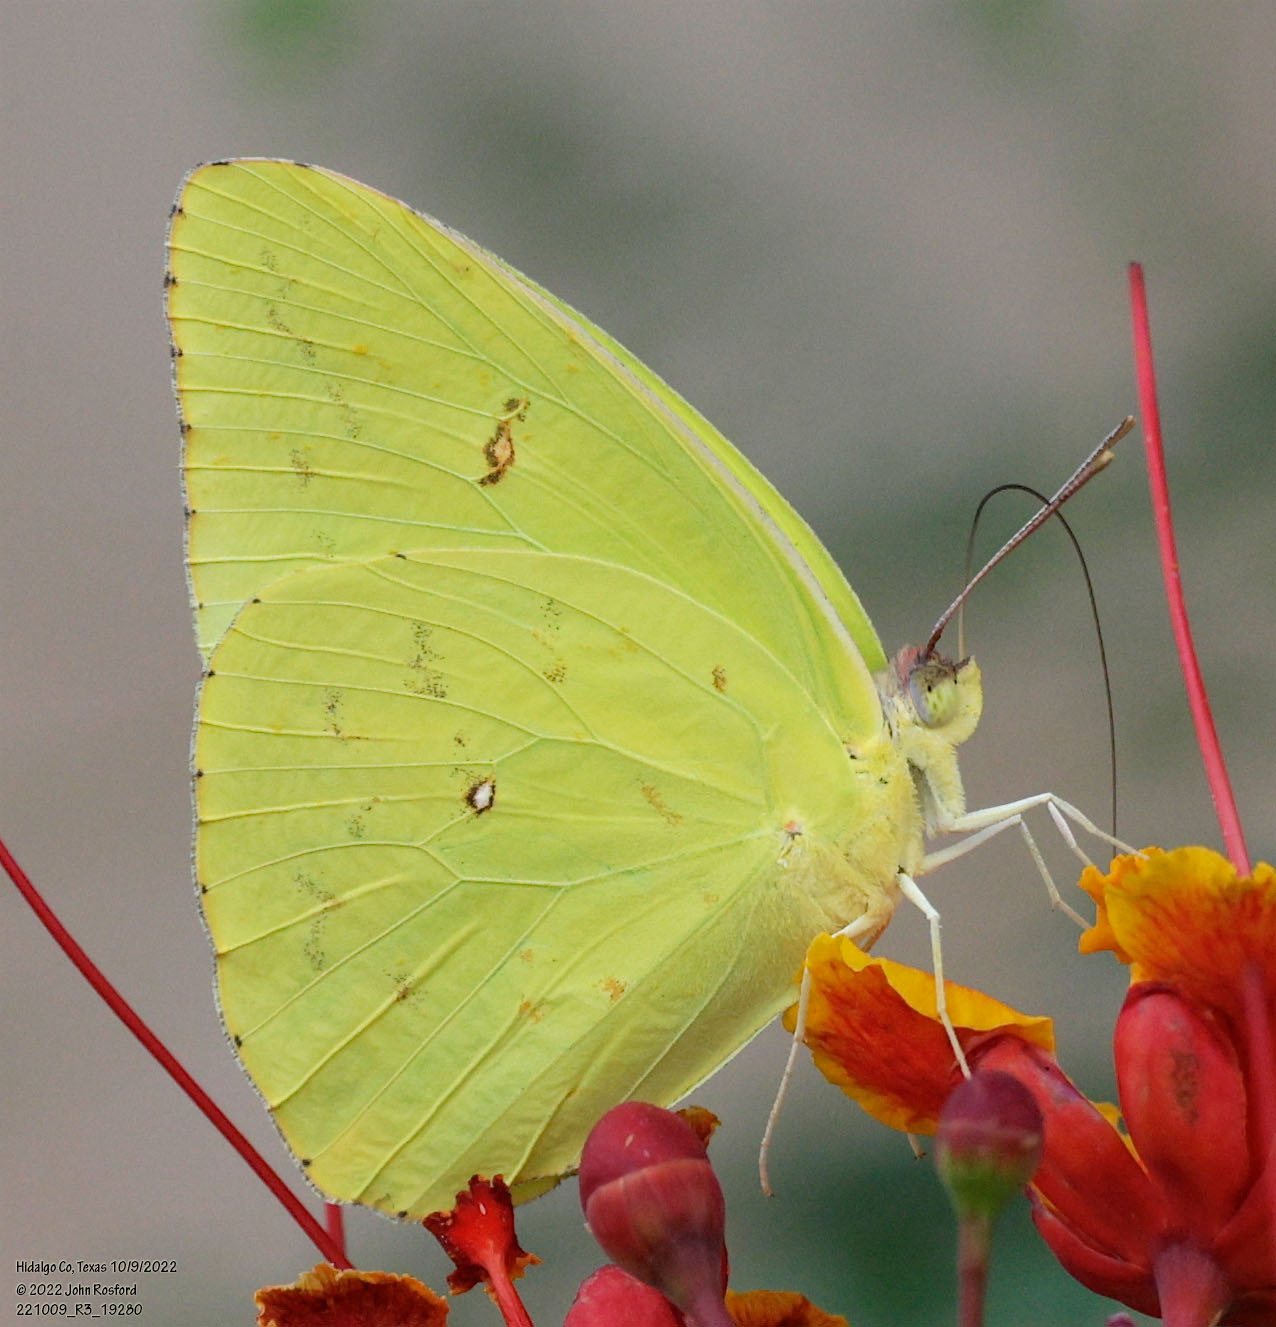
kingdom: Animalia
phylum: Arthropoda
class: Insecta
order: Lepidoptera
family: Pieridae
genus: Phoebis
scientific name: Phoebis sennae
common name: Cloudless sulphur
